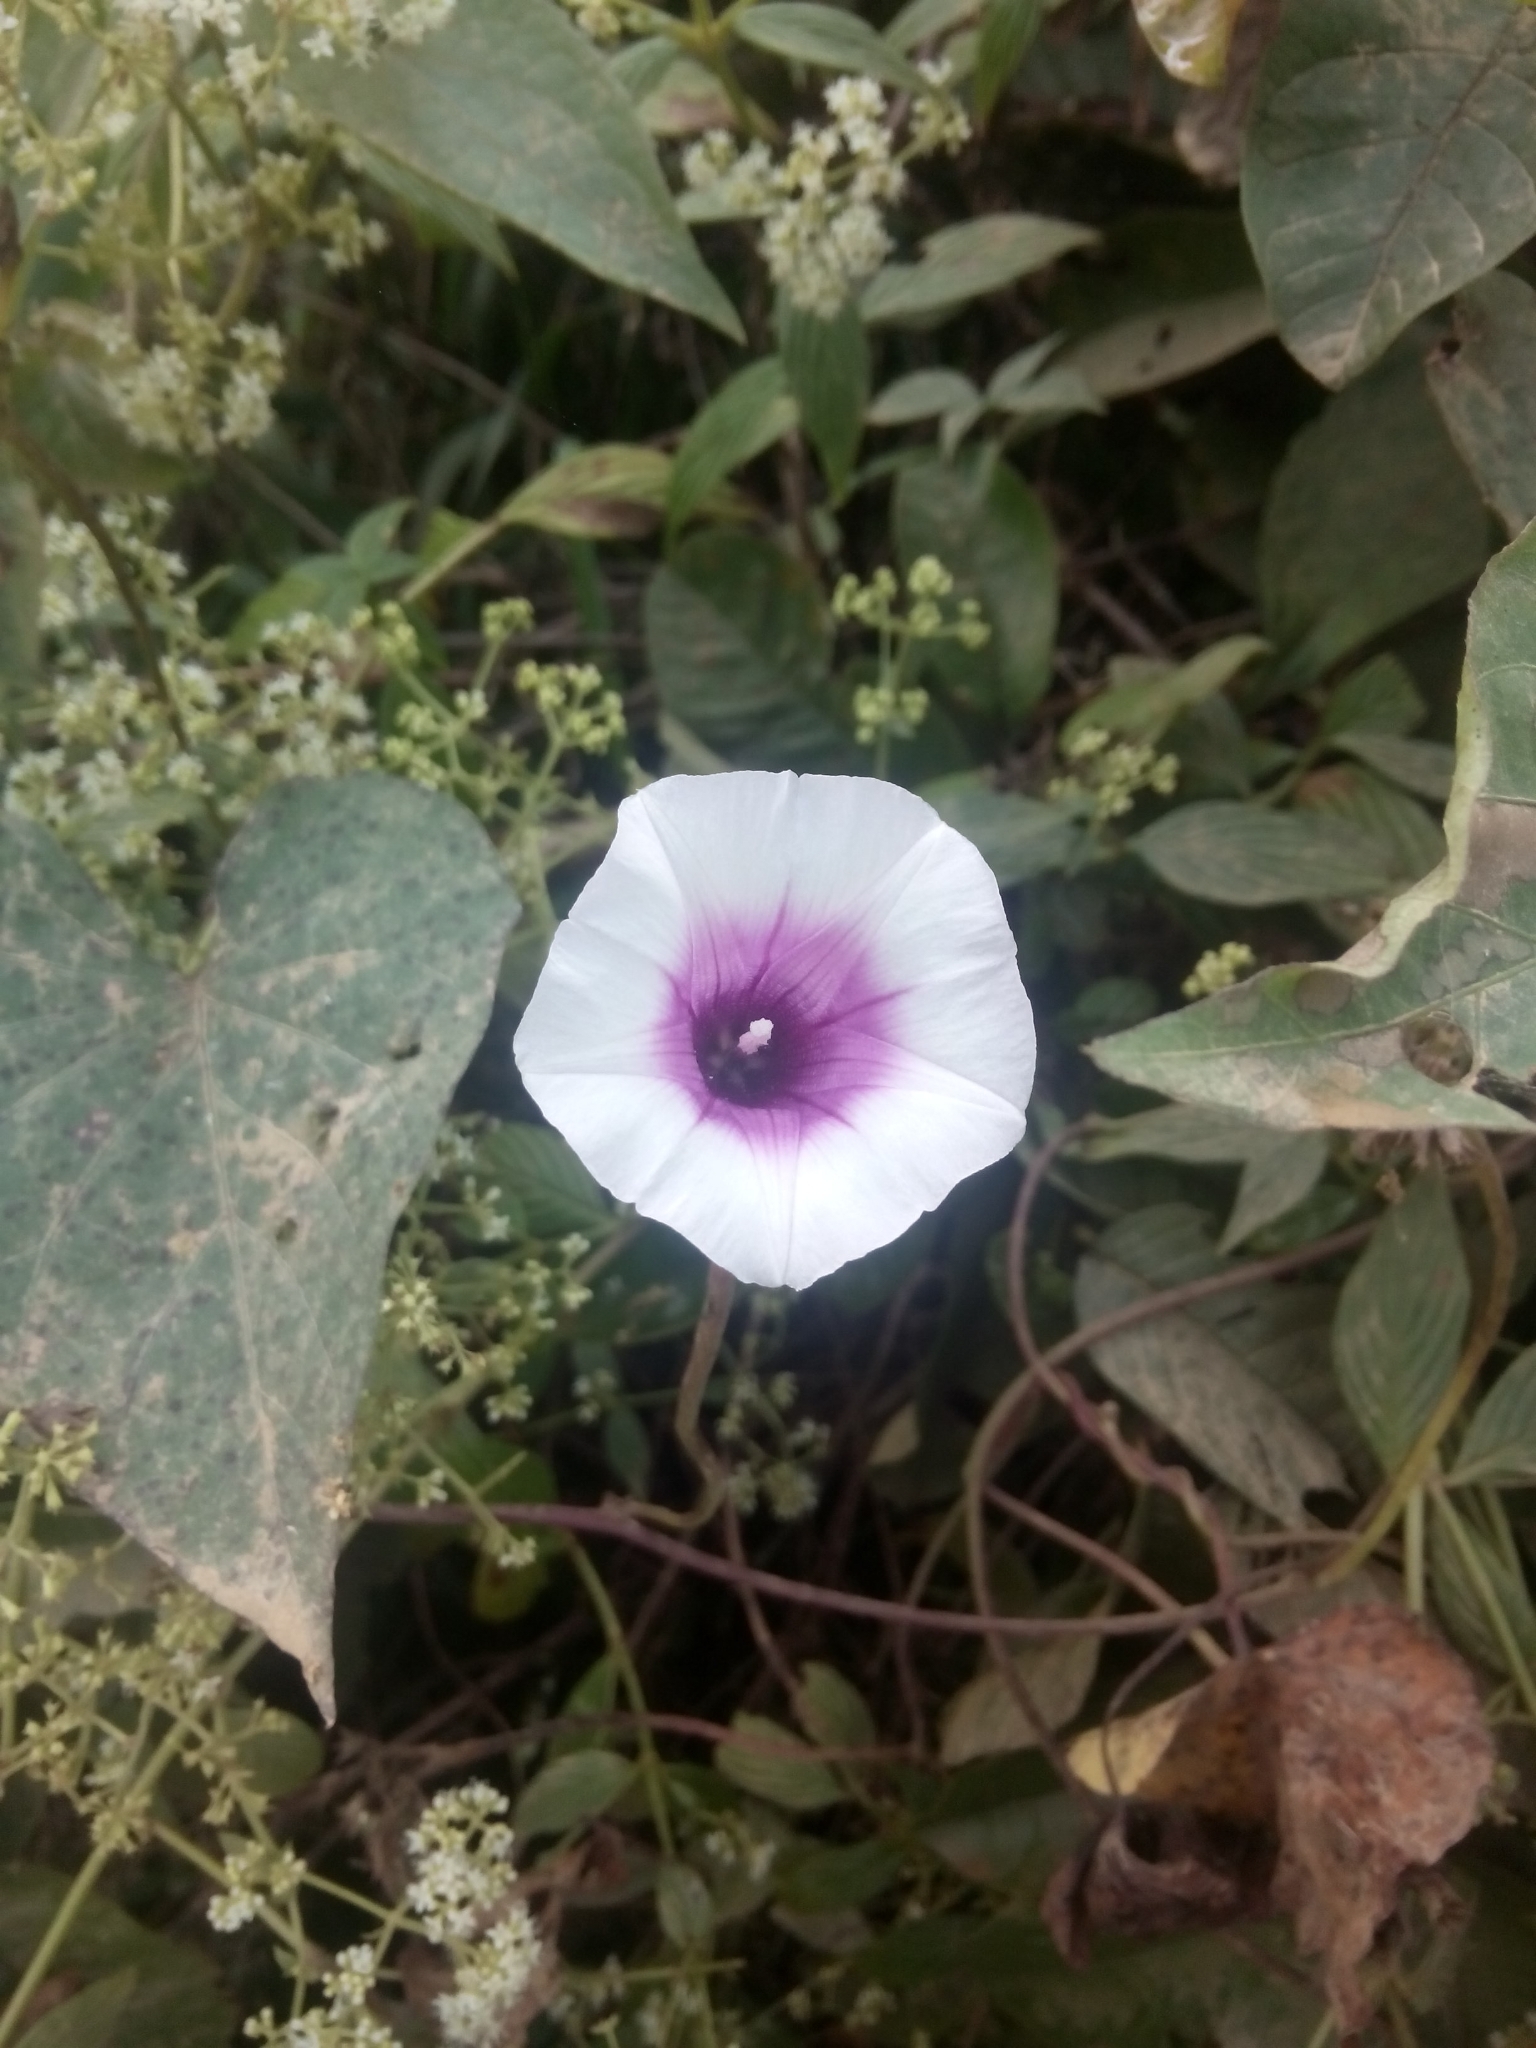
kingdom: Plantae
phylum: Tracheophyta
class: Magnoliopsida
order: Solanales
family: Convolvulaceae
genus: Ipomoea
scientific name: Ipomoea batatas
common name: Sweet-potato
